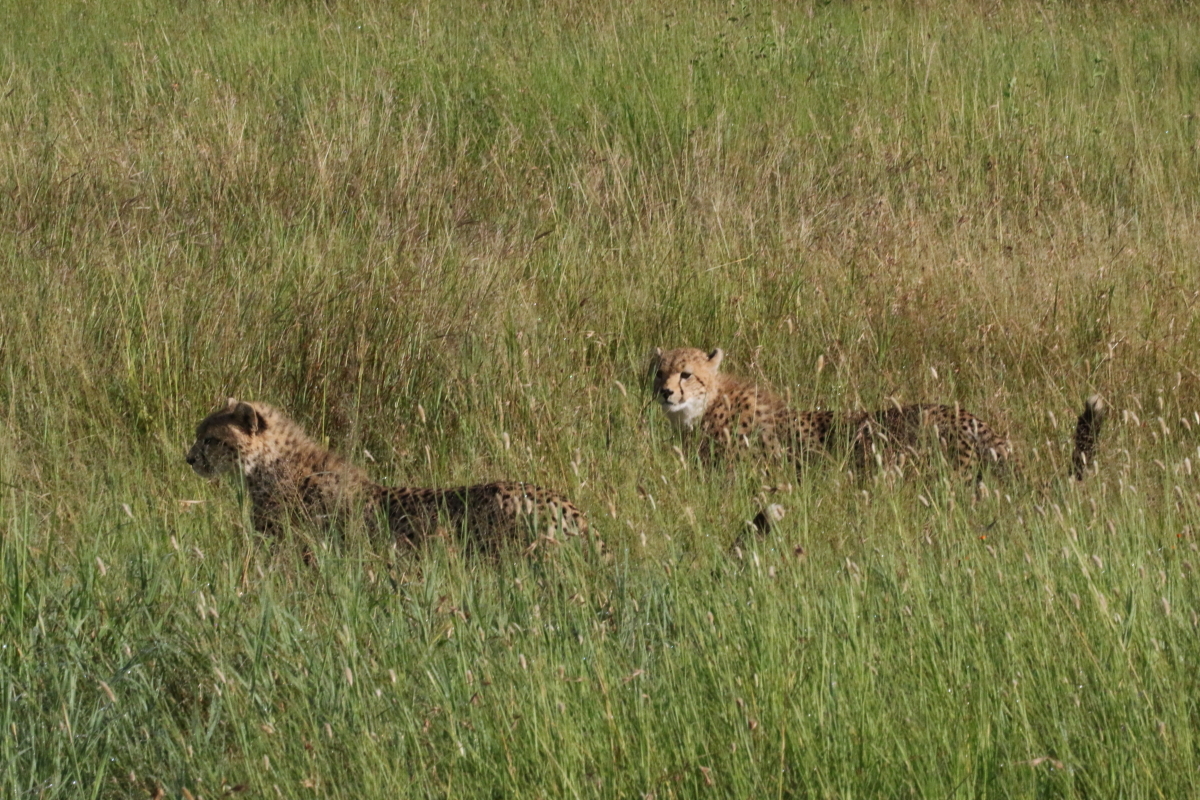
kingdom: Animalia
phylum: Chordata
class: Mammalia
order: Carnivora
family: Felidae
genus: Acinonyx
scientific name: Acinonyx jubatus
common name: Cheetah
